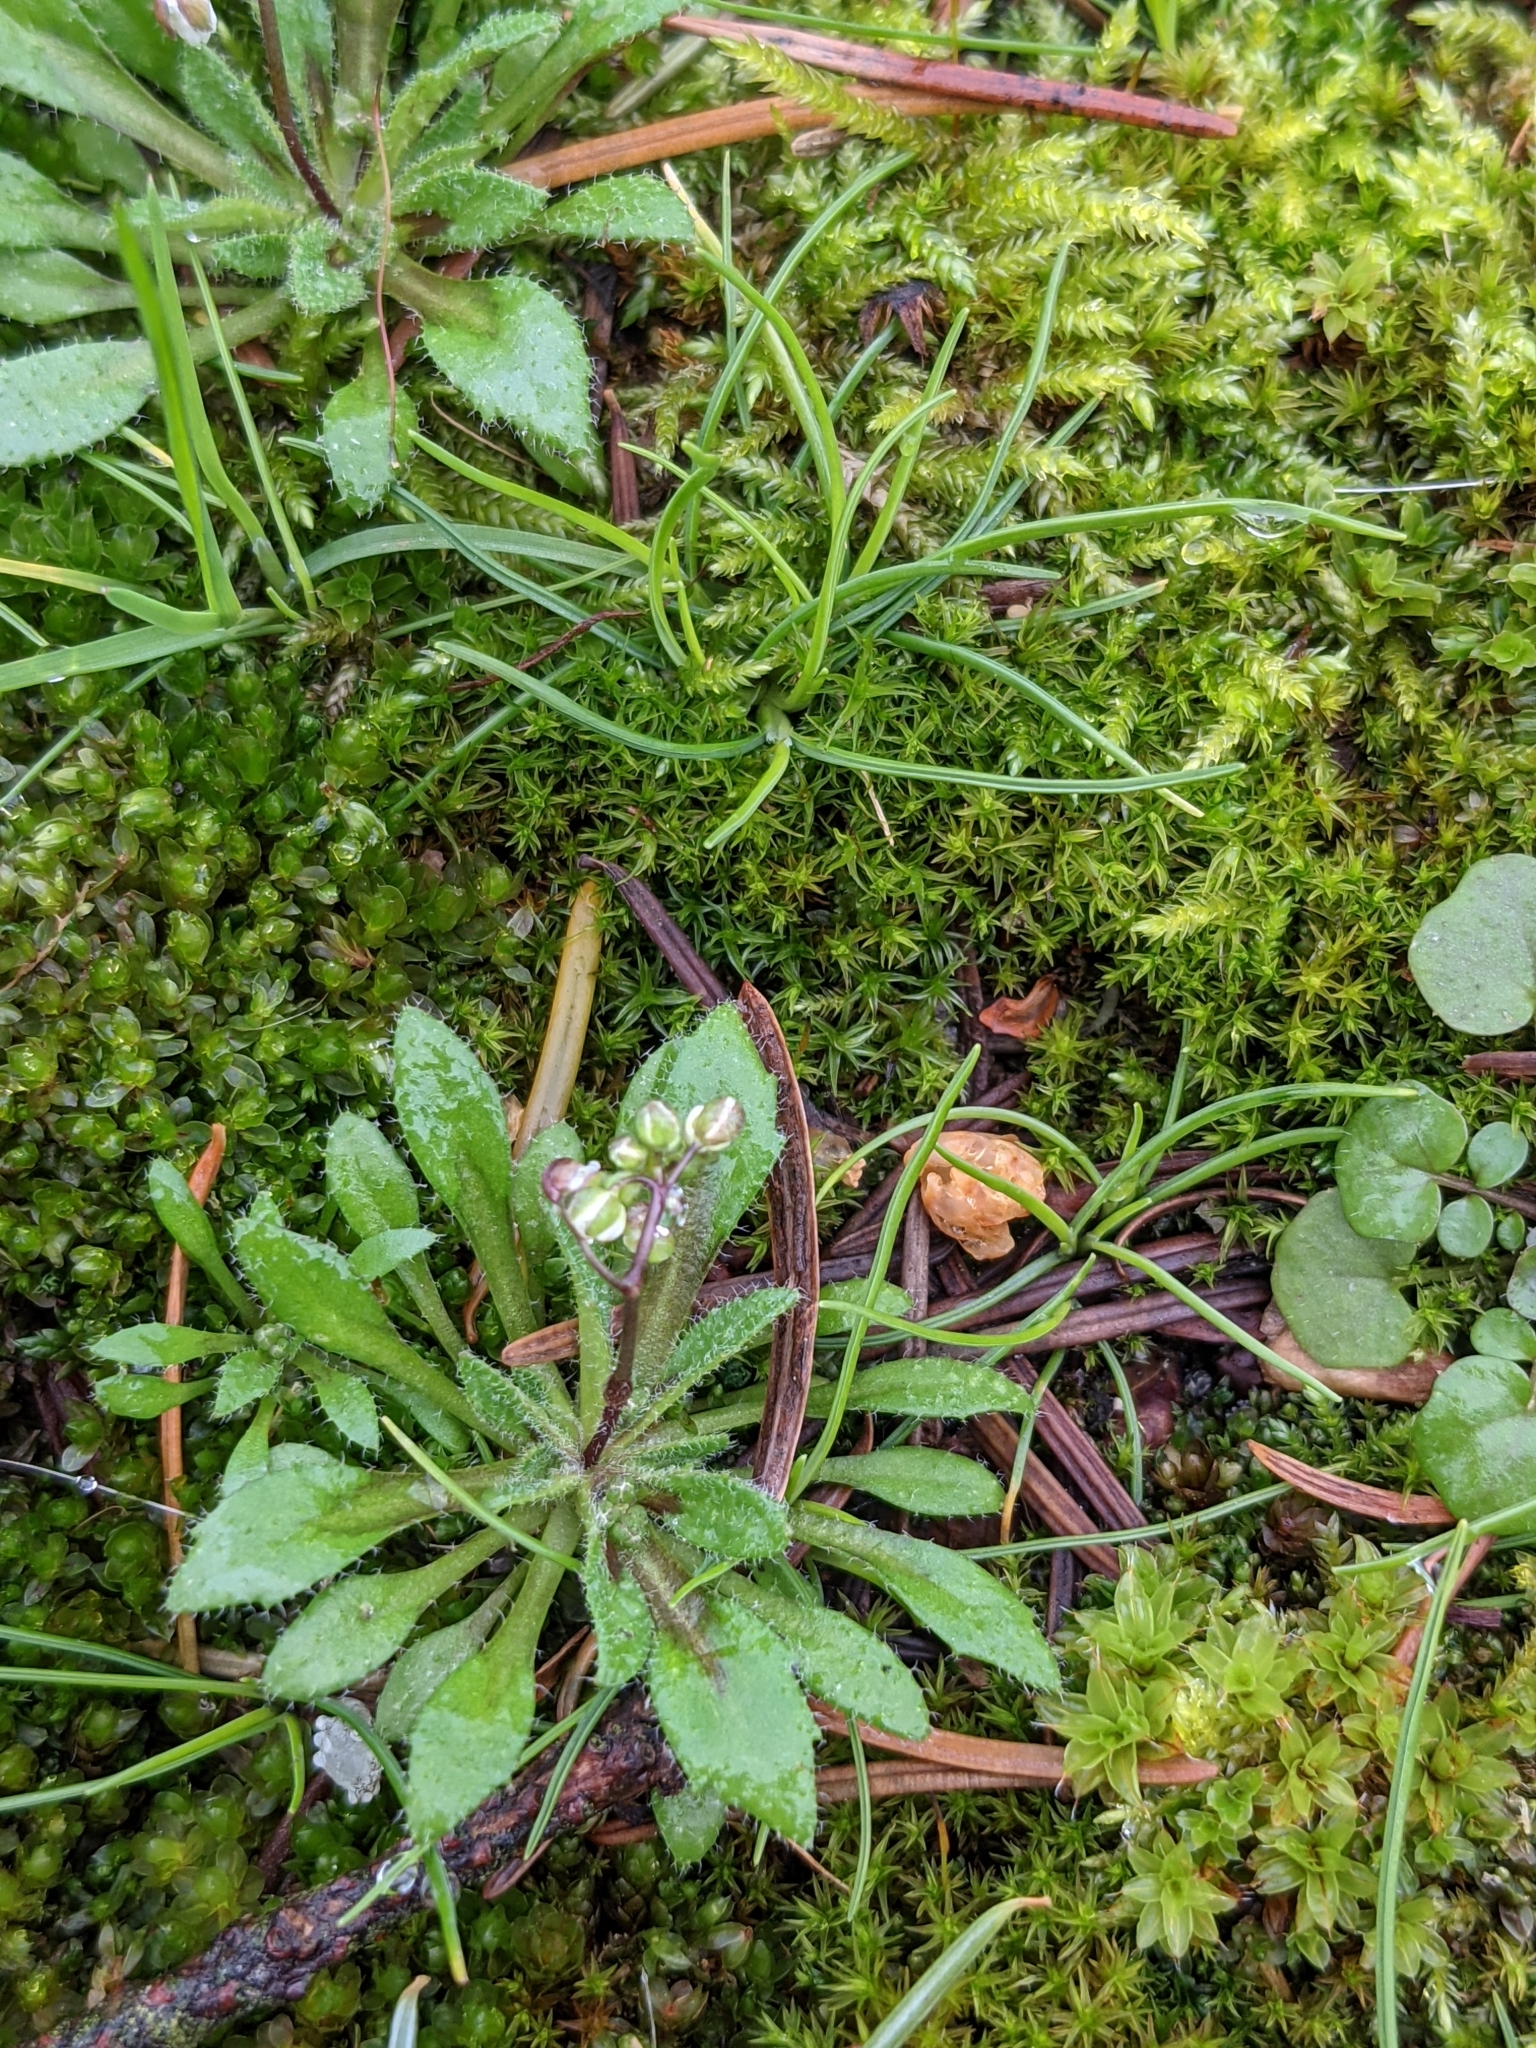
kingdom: Plantae
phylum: Tracheophyta
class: Magnoliopsida
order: Brassicales
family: Brassicaceae
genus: Draba
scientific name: Draba verna
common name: Spring draba
